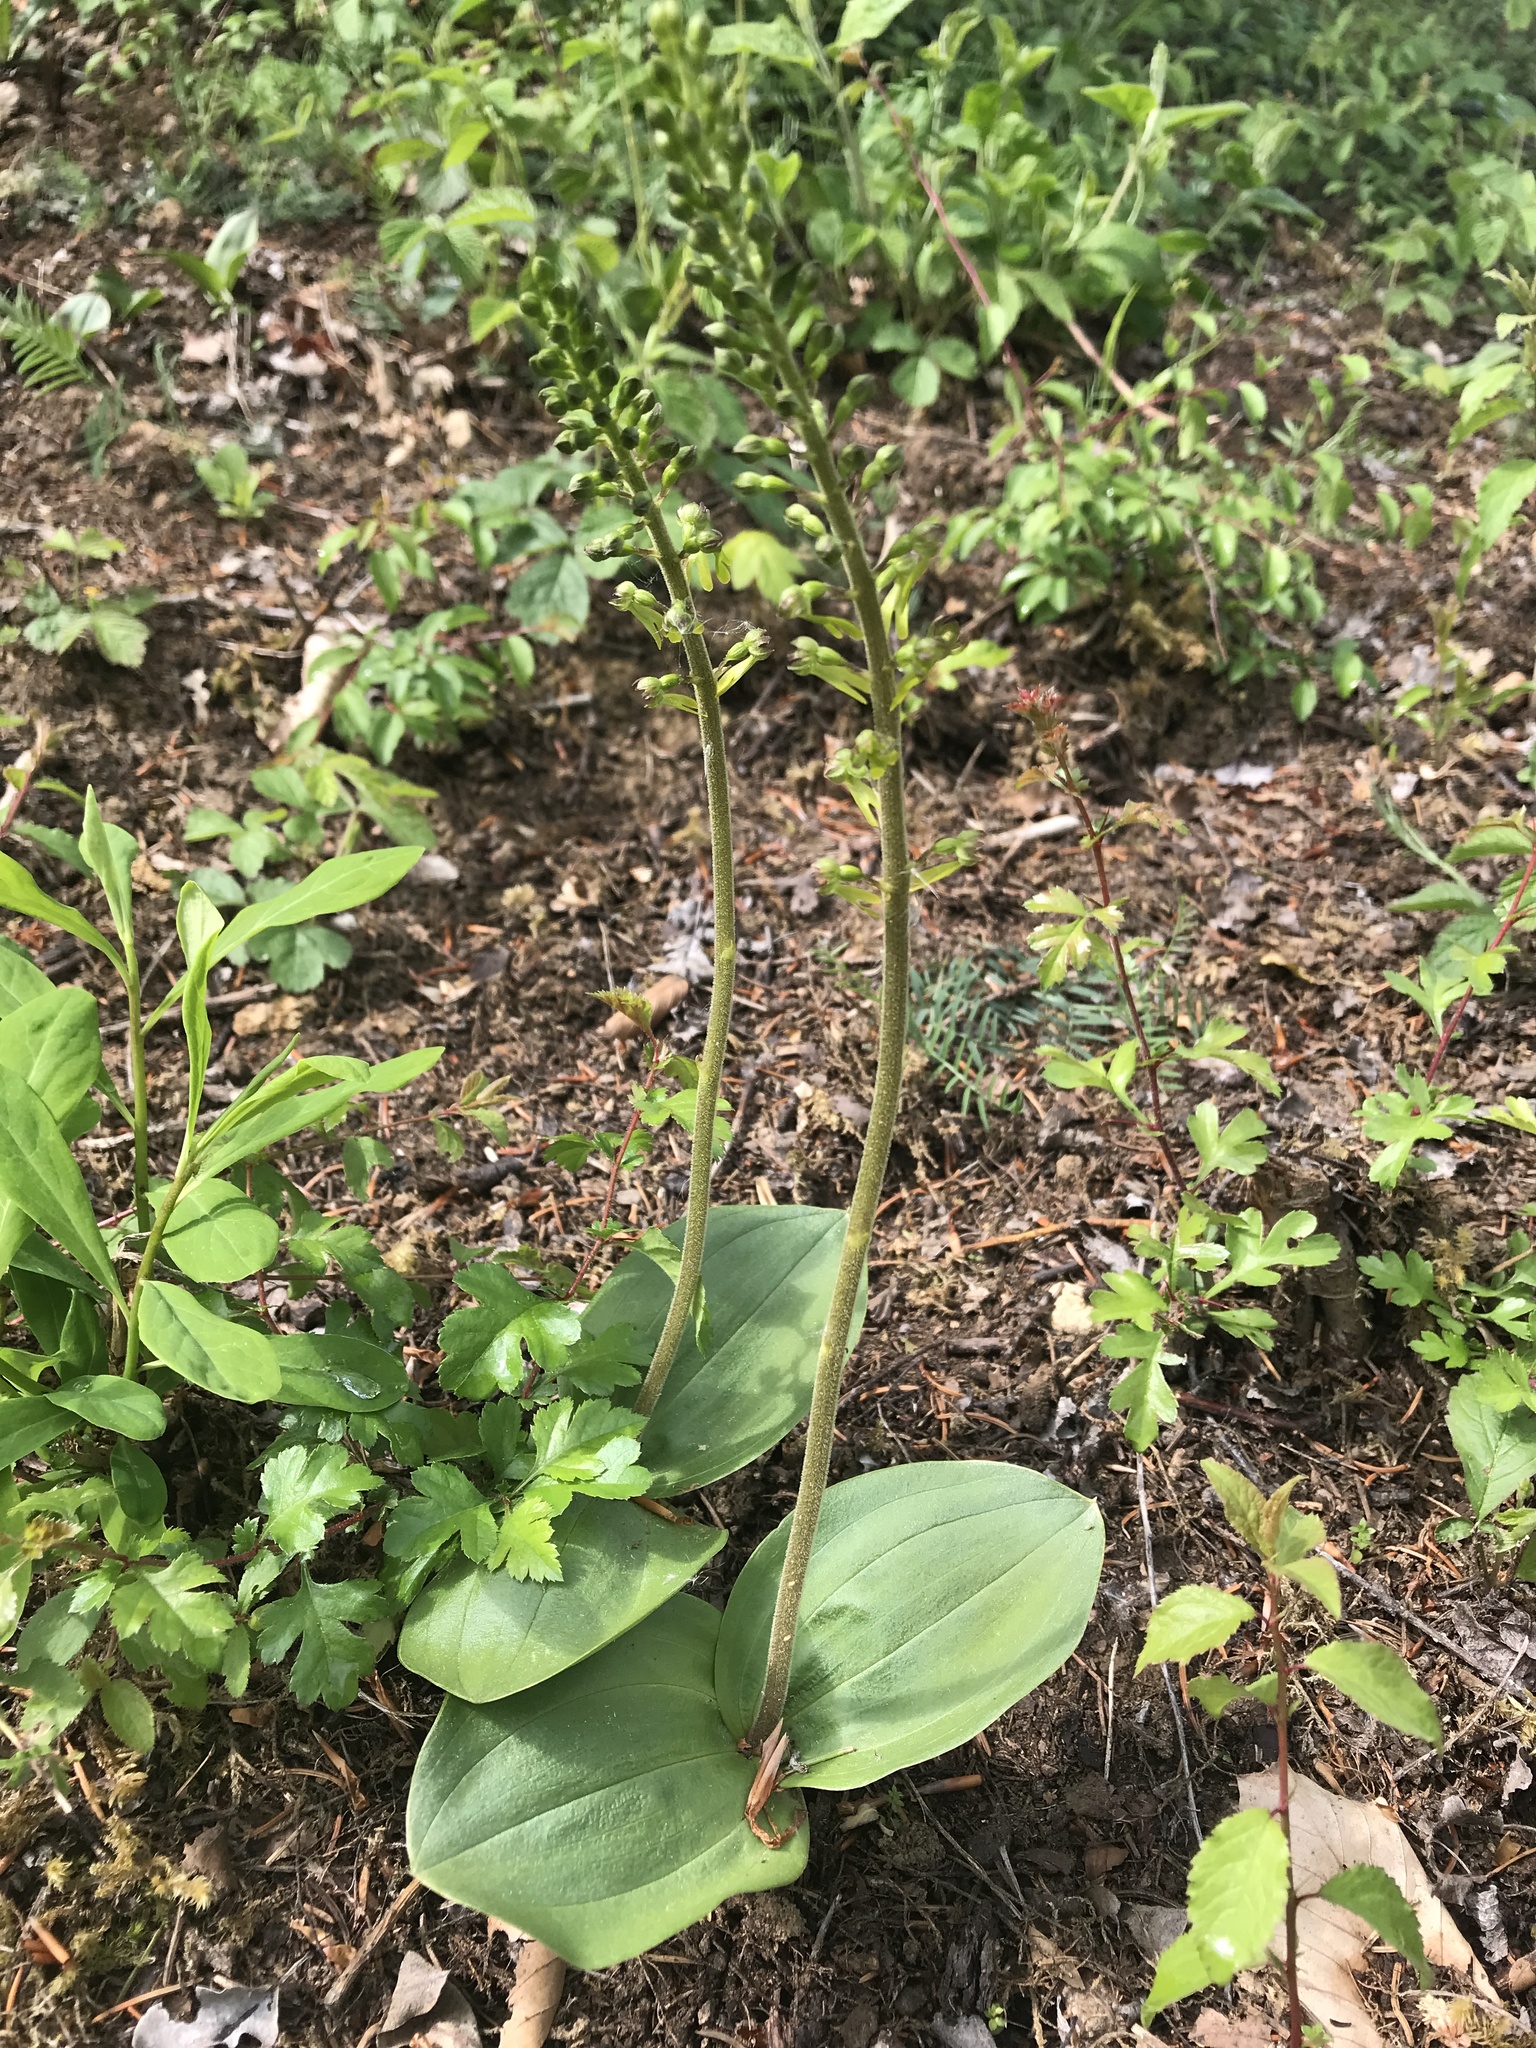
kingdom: Plantae
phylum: Tracheophyta
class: Liliopsida
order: Asparagales
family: Orchidaceae
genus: Neottia
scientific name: Neottia ovata
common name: Common twayblade
